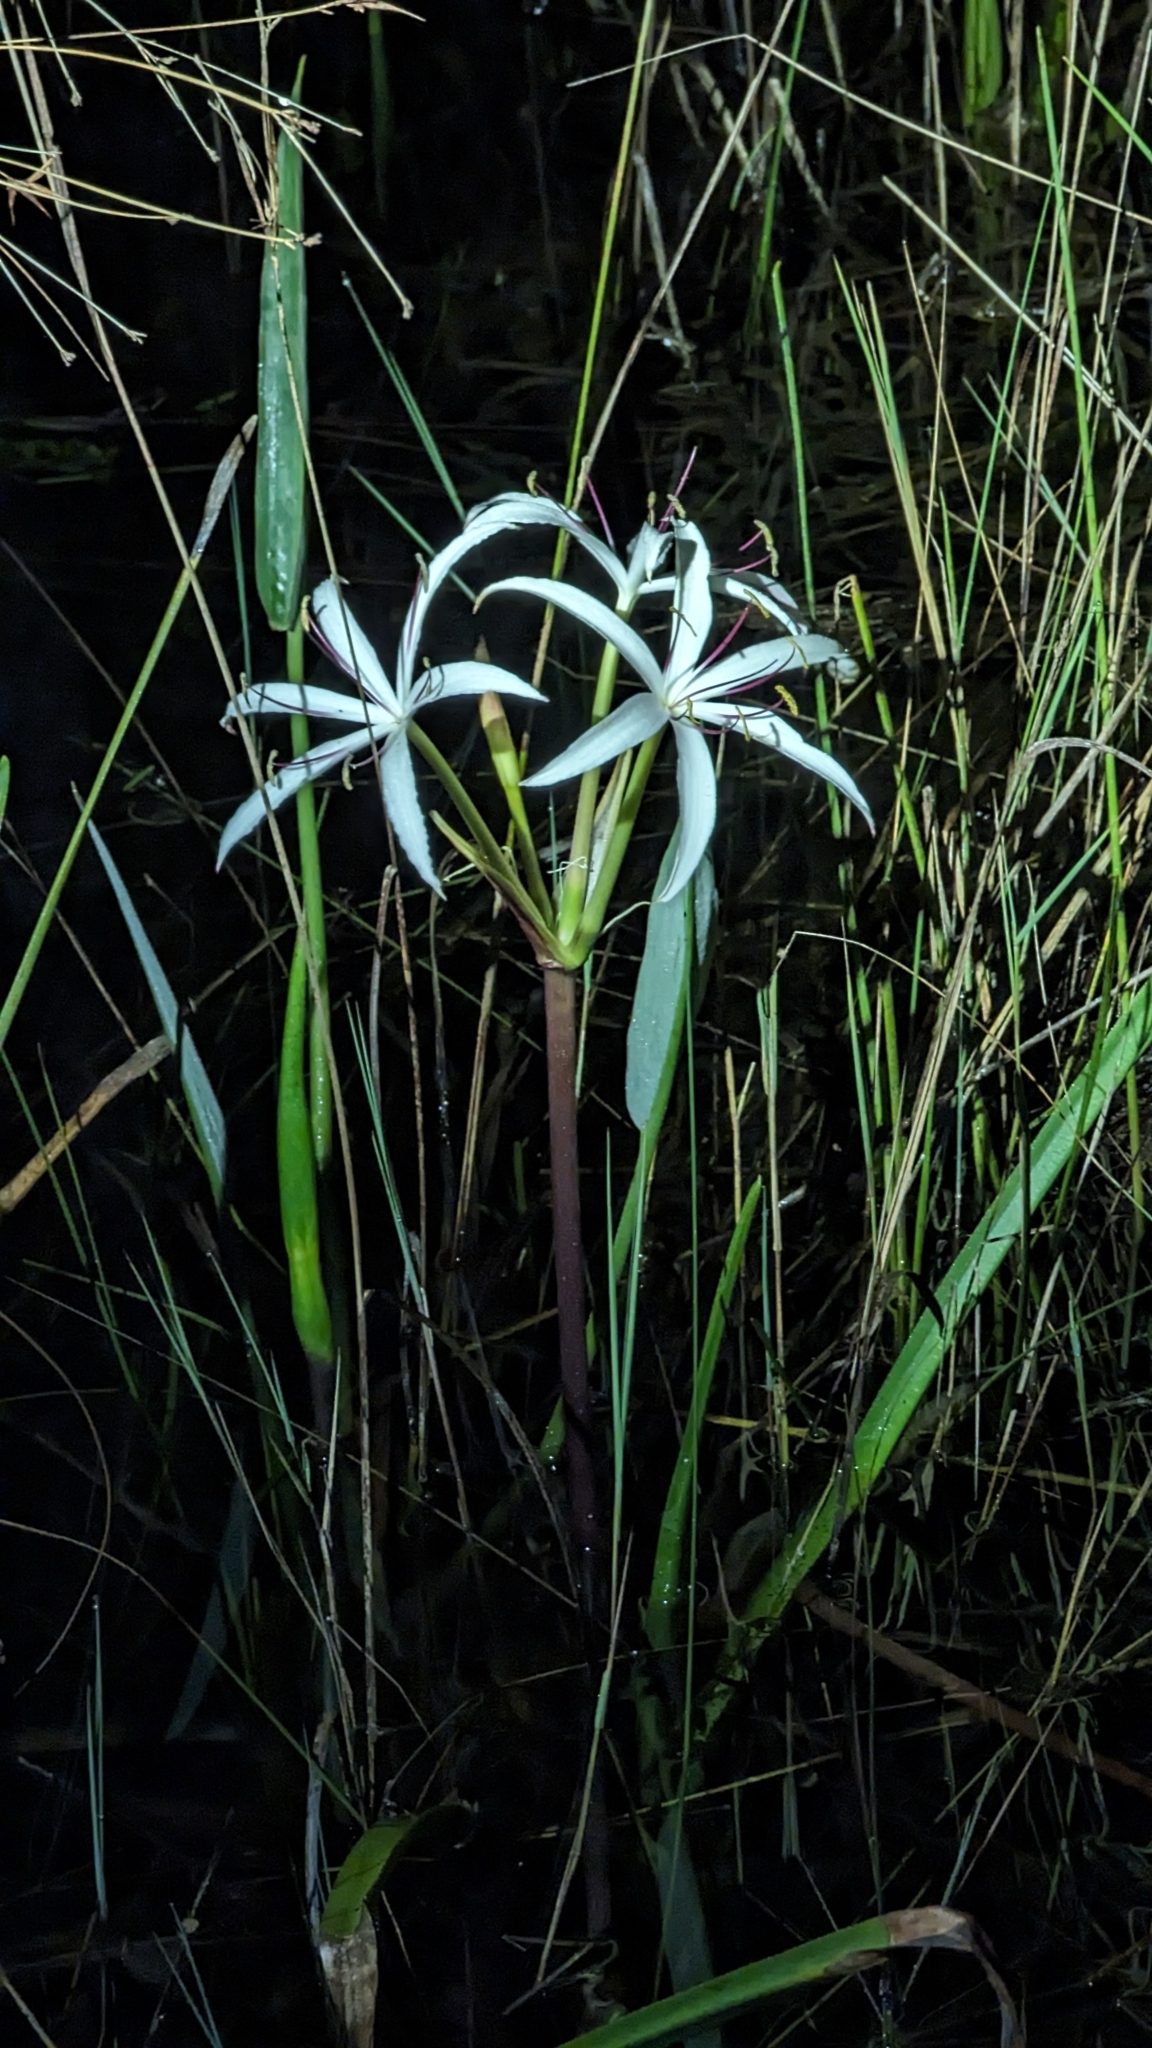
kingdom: Plantae
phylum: Tracheophyta
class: Liliopsida
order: Asparagales
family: Amaryllidaceae
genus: Crinum
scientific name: Crinum americanum
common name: Florida swamp-lily
